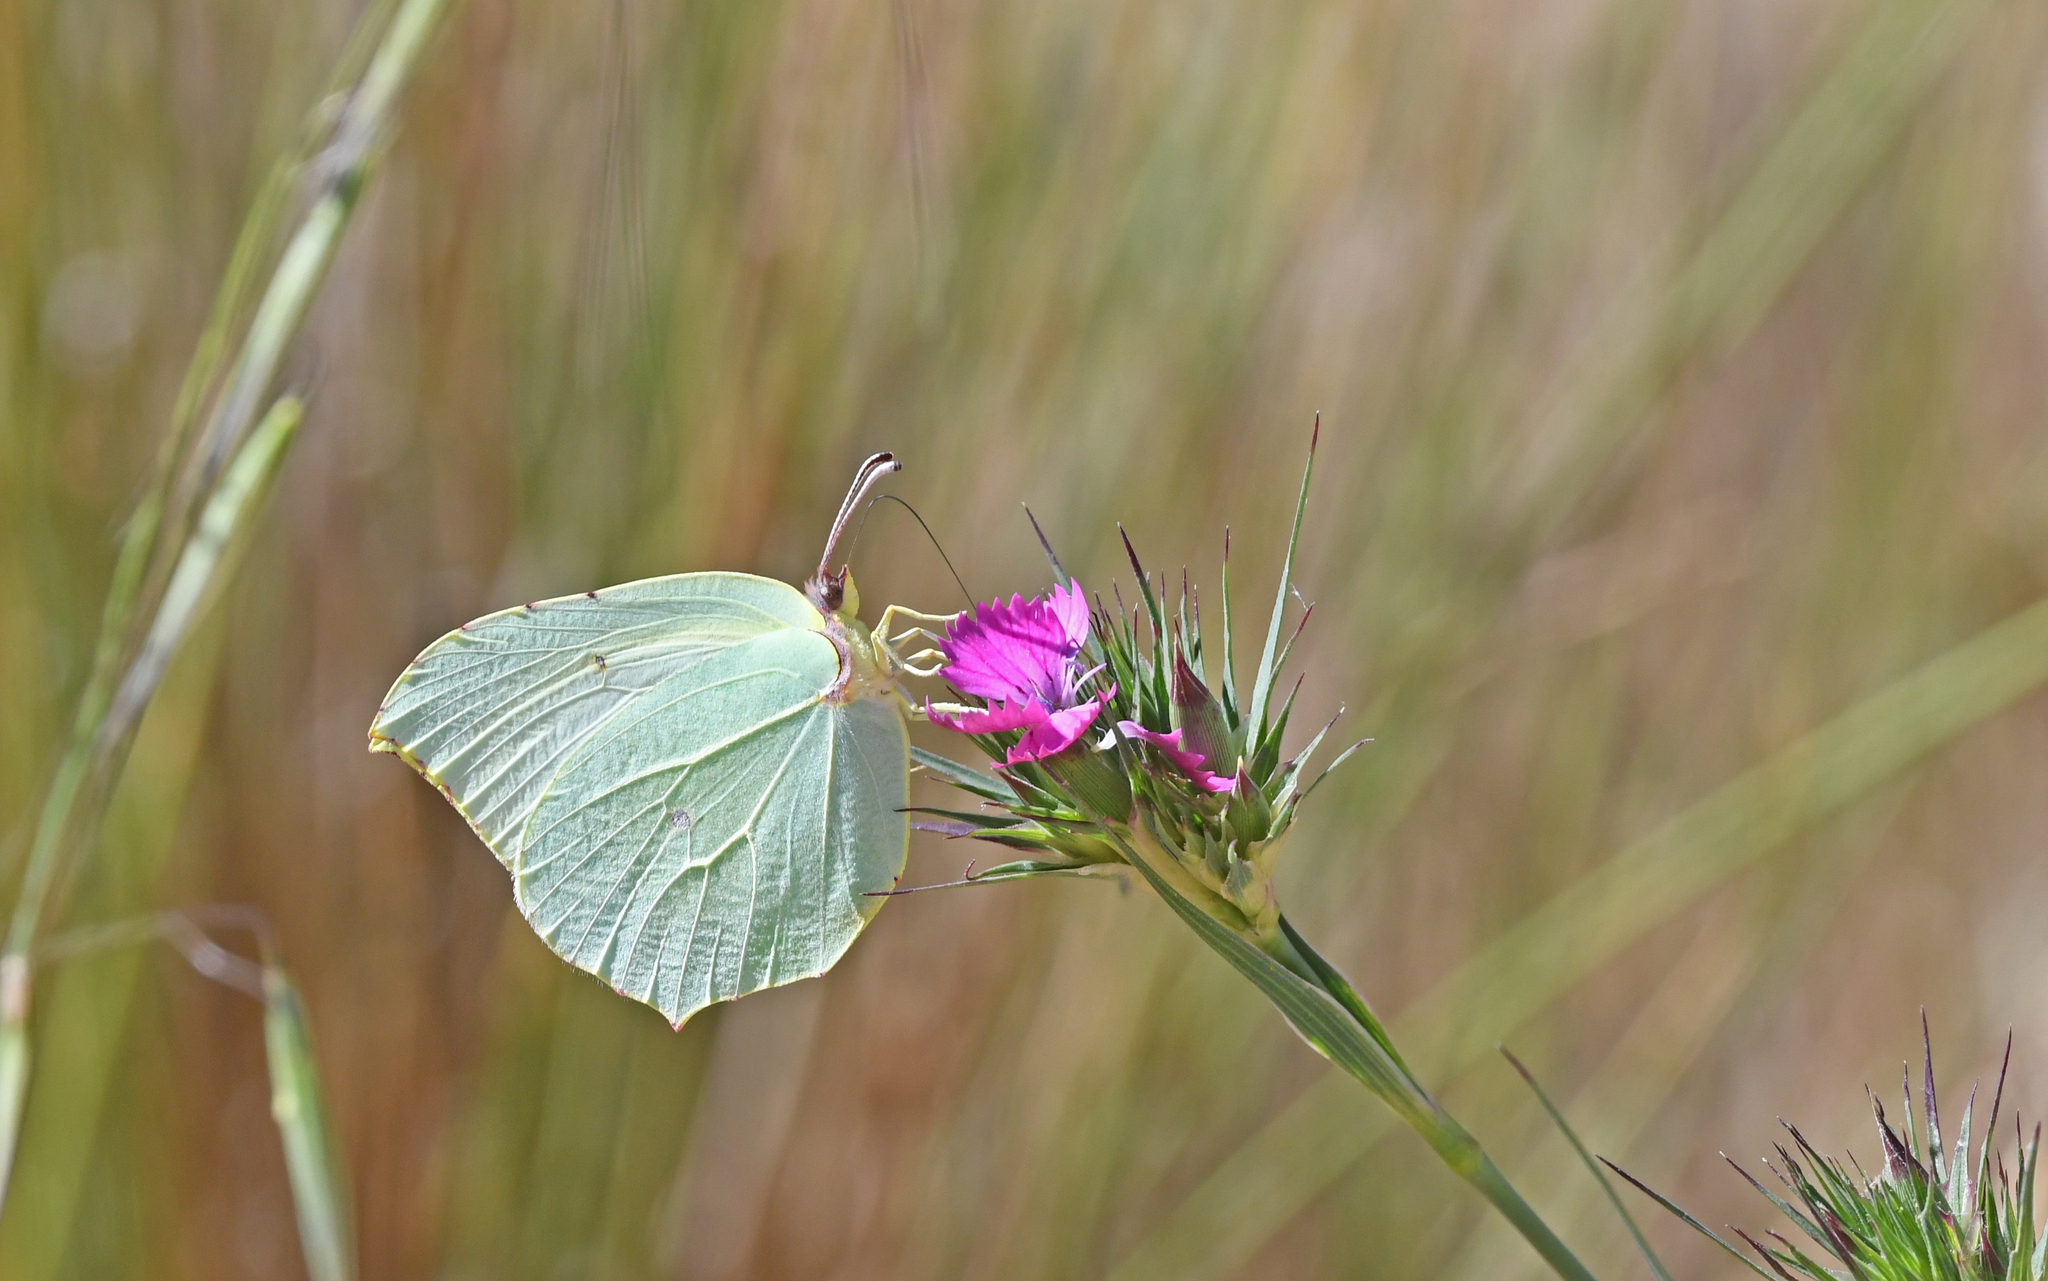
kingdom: Animalia
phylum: Arthropoda
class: Insecta
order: Lepidoptera
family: Pieridae
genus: Gonepteryx
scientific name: Gonepteryx cleopatra
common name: Cleopatra
